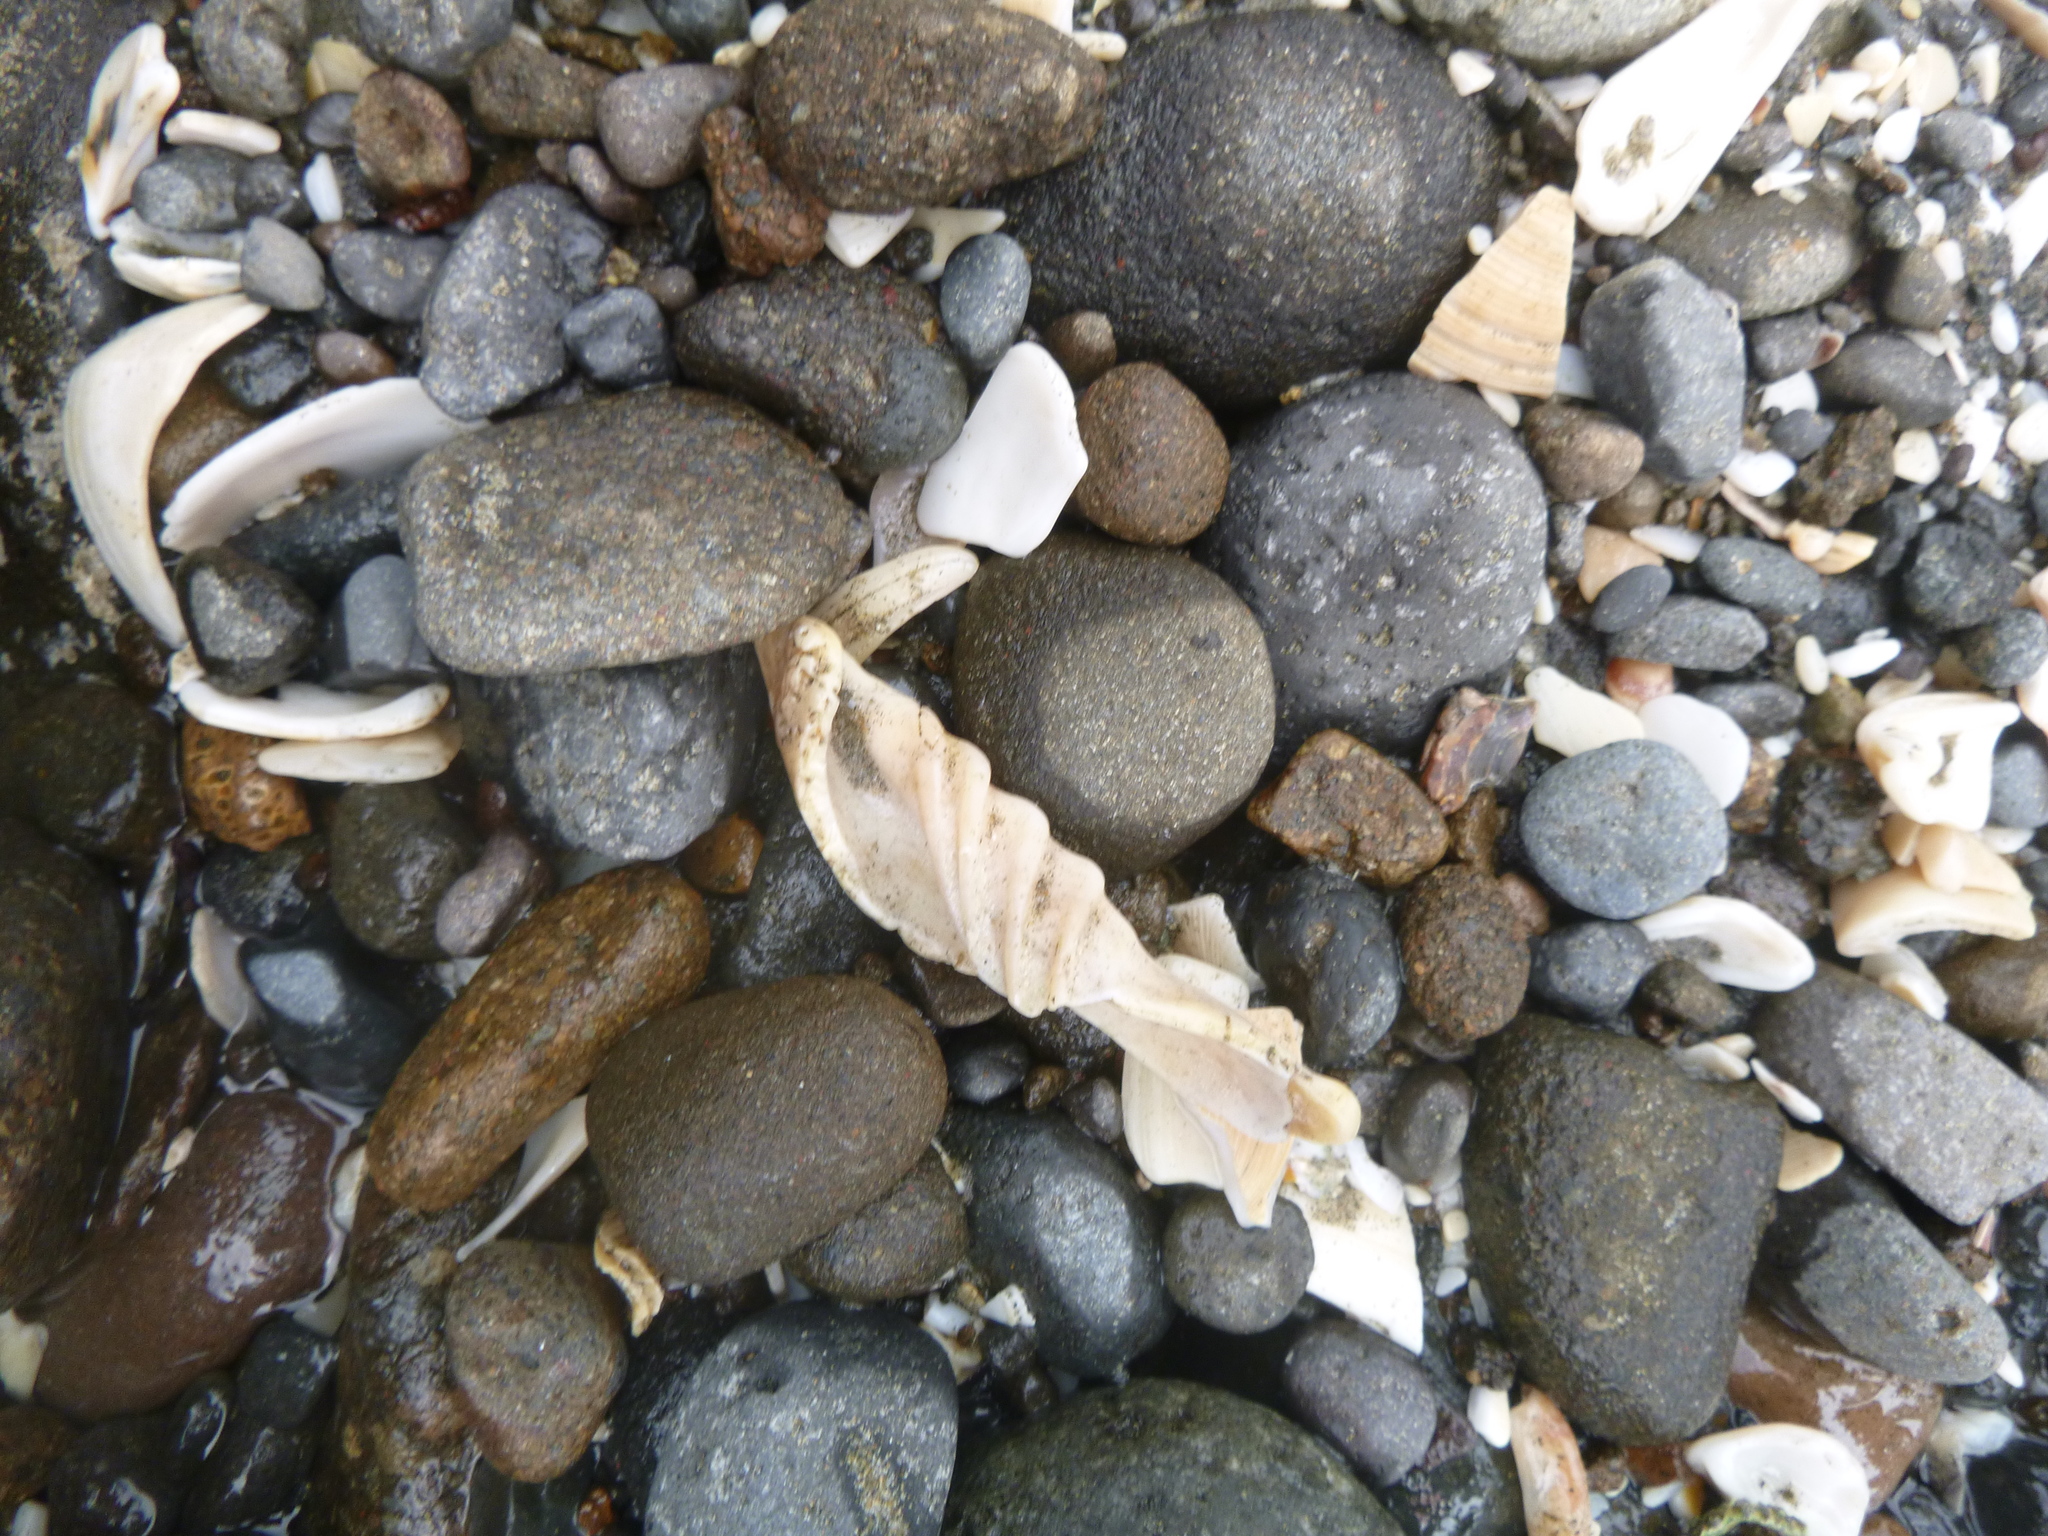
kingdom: Animalia
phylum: Mollusca
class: Gastropoda
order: Neogastropoda
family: Volutidae
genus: Alcithoe
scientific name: Alcithoe arabica
